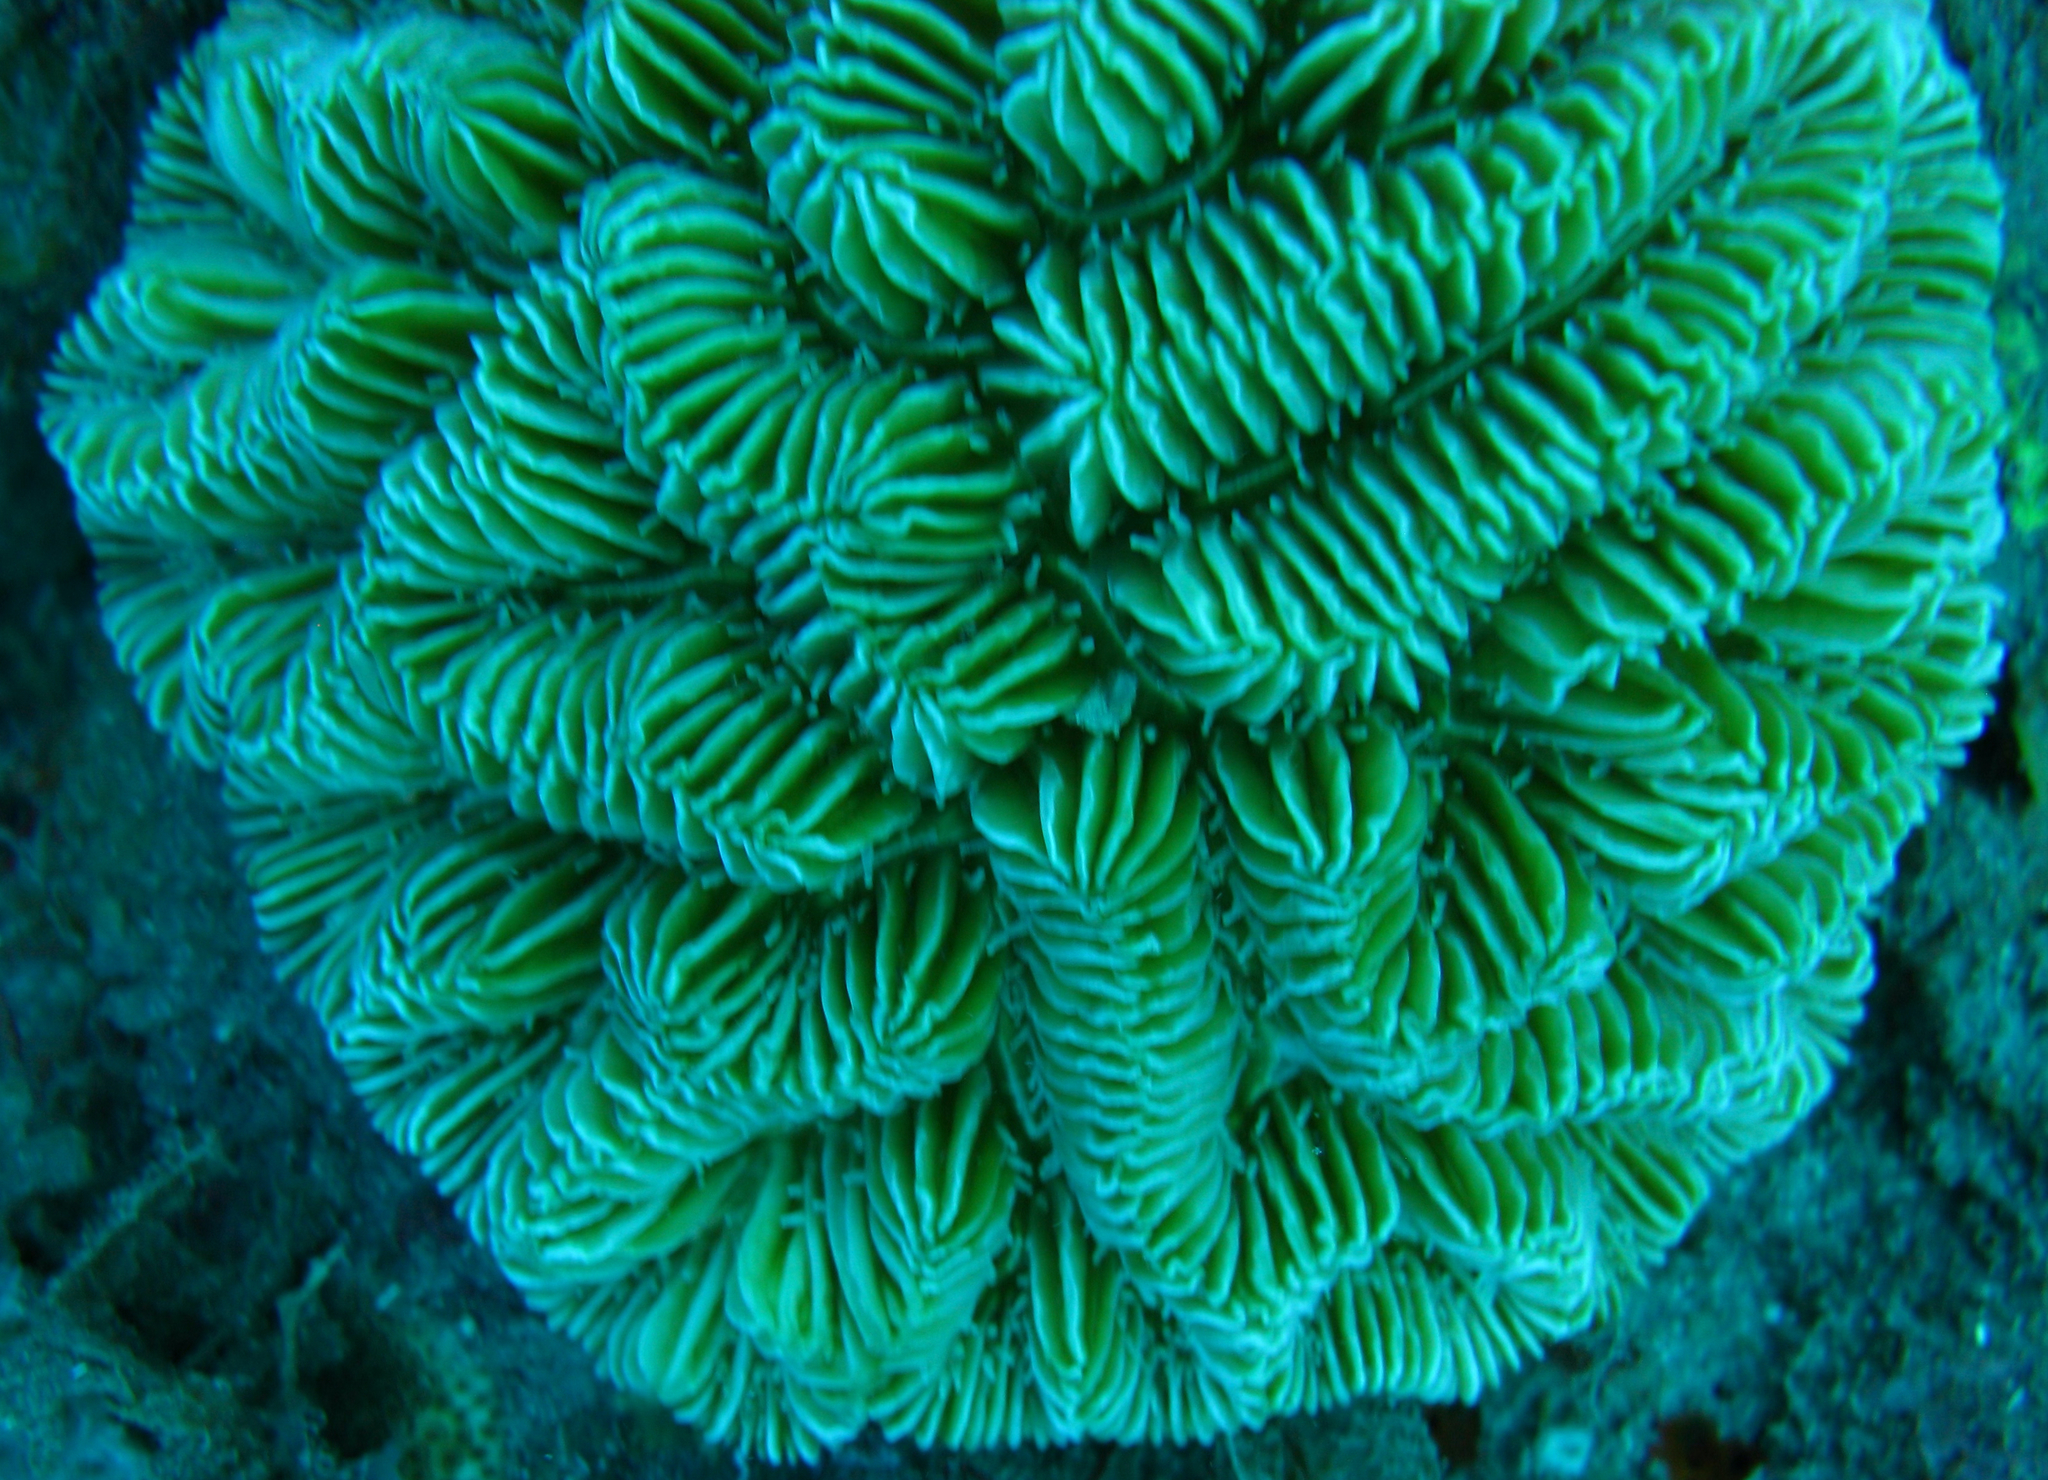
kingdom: Animalia
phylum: Cnidaria
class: Anthozoa
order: Scleractinia
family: Meandrinidae
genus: Meandrina
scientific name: Meandrina meandrites
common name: Maze coral
